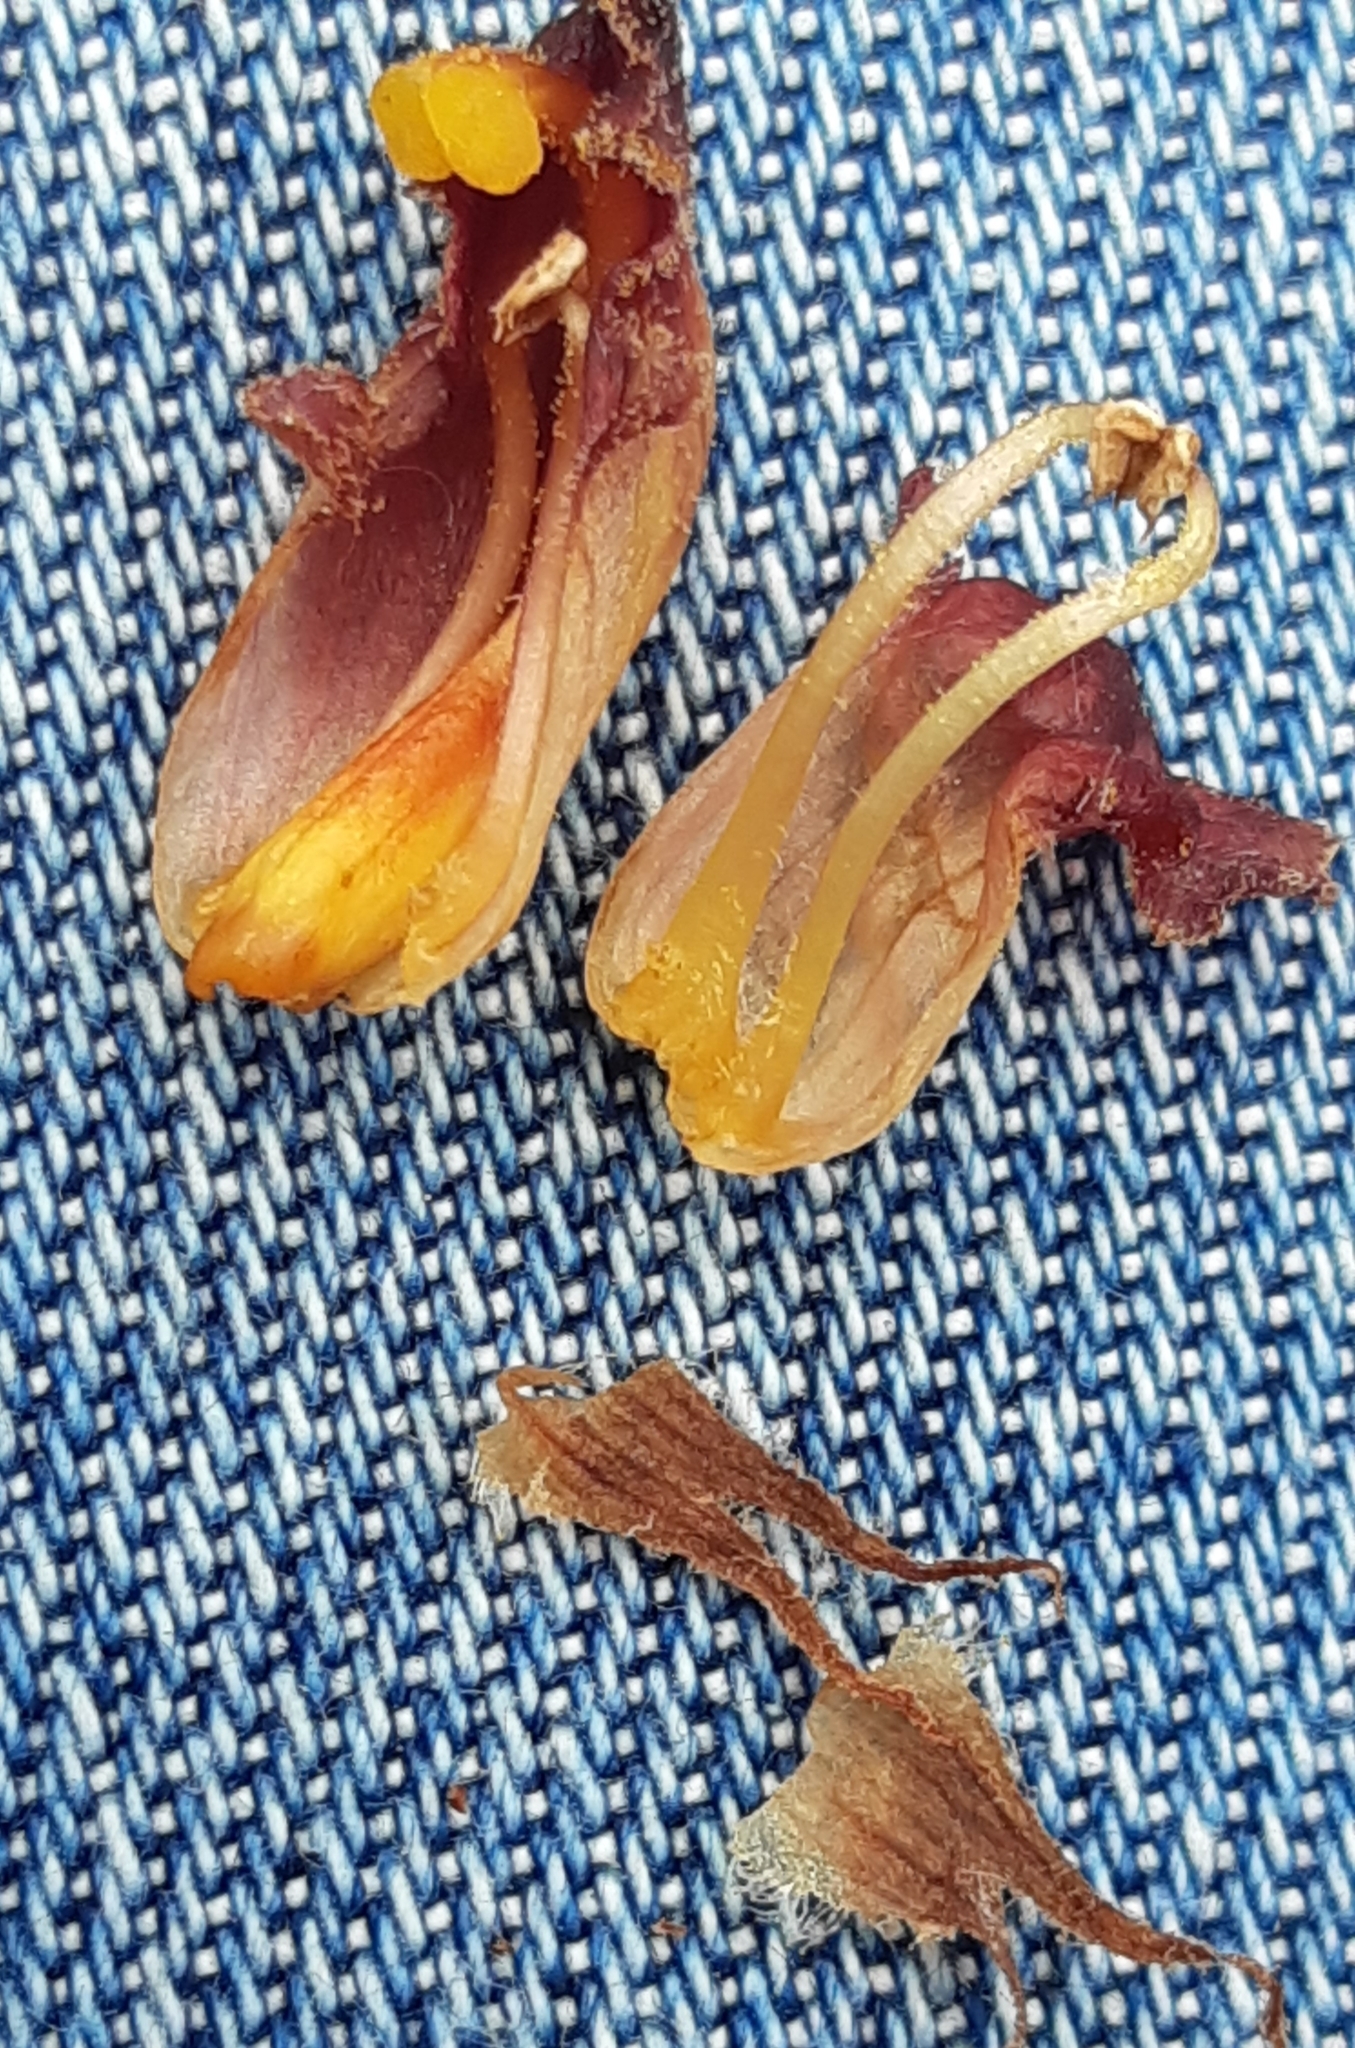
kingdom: Plantae
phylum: Tracheophyta
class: Magnoliopsida
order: Lamiales
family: Orobanchaceae
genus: Orobanche
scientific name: Orobanche gracilis
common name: Slender broomrape
